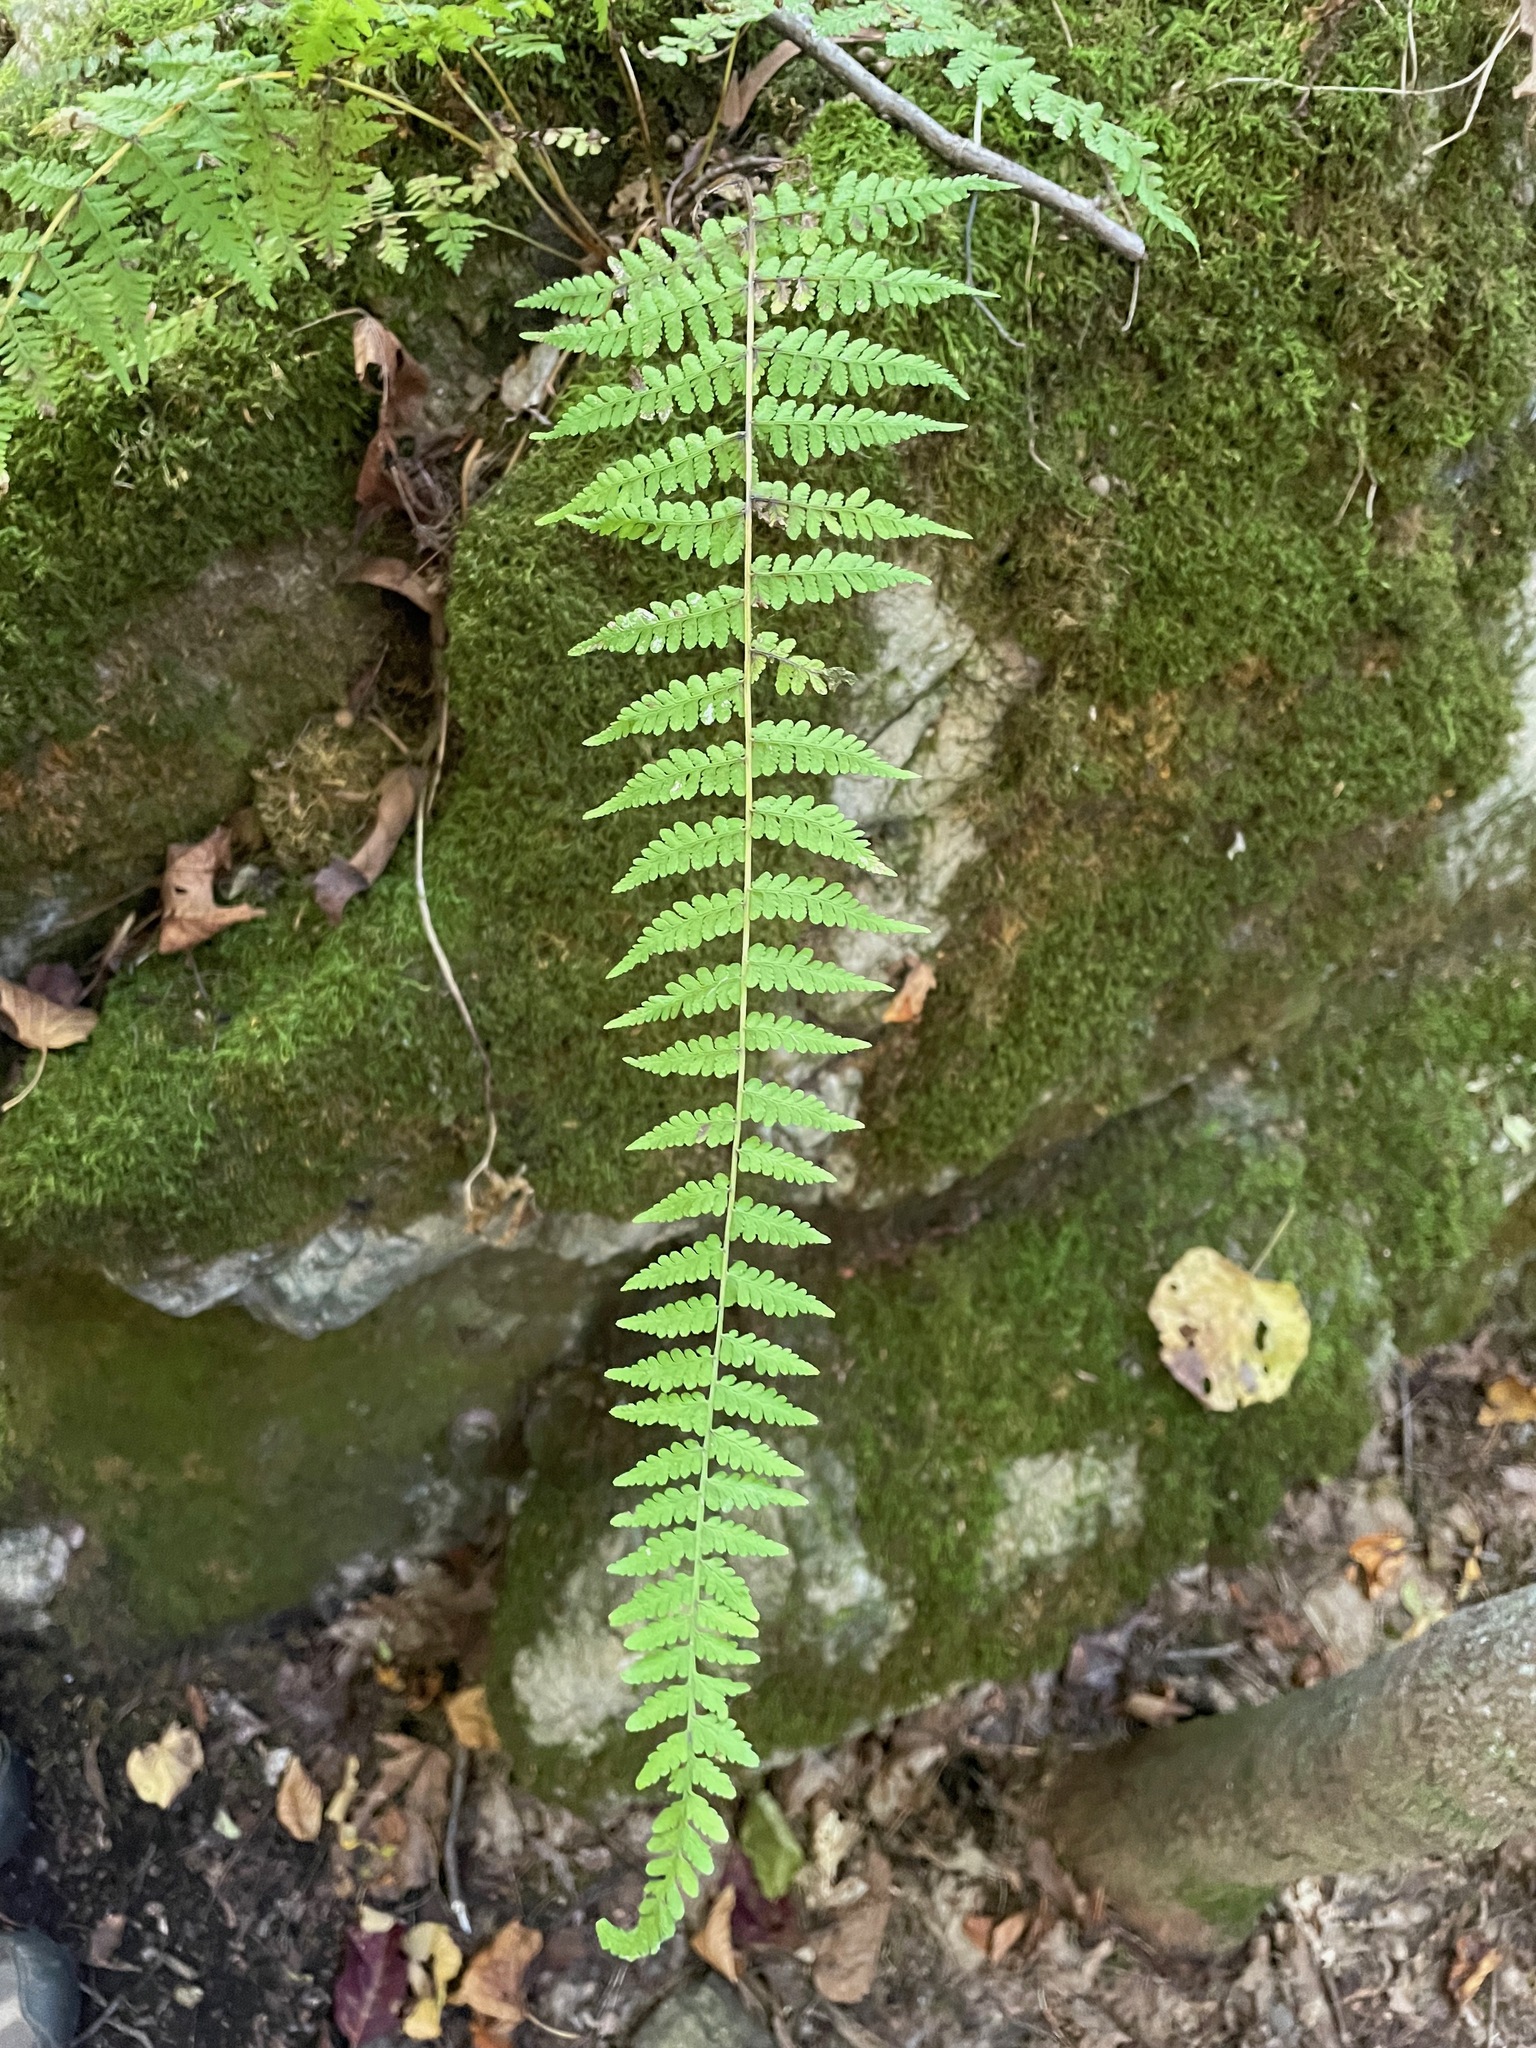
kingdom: Plantae
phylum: Tracheophyta
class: Polypodiopsida
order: Polypodiales
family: Cystopteridaceae
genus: Cystopteris
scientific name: Cystopteris bulbifera
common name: Bulblet bladder fern
